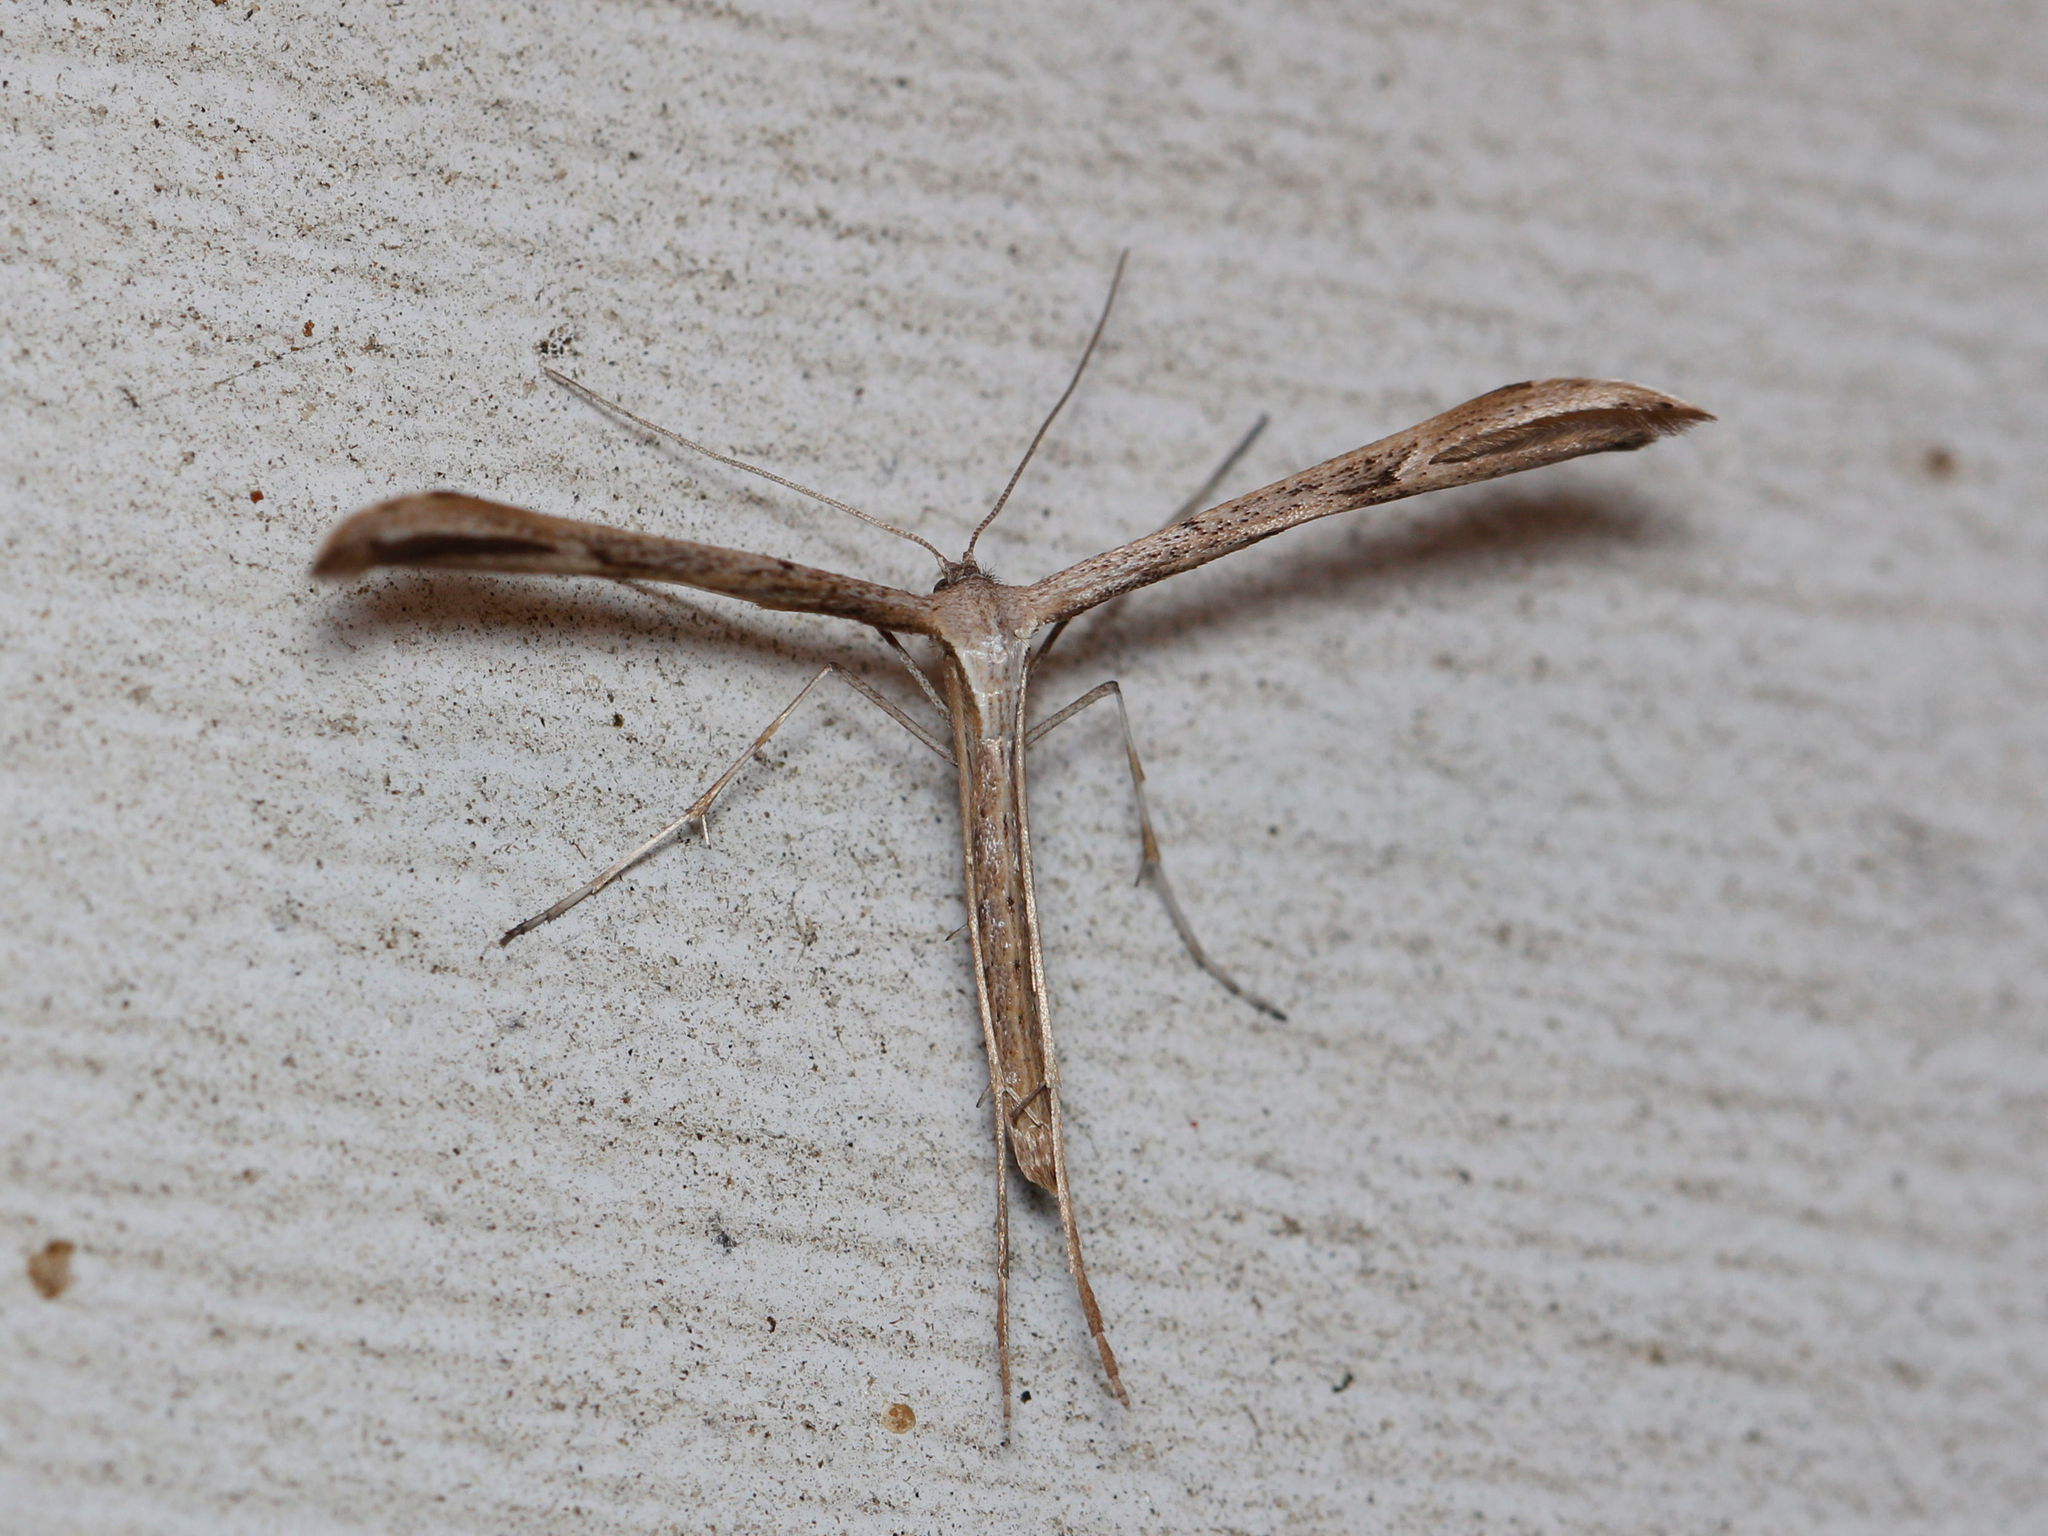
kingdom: Animalia
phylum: Arthropoda
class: Insecta
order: Lepidoptera
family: Pterophoridae
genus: Emmelina
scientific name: Emmelina monodactyla
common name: Common plume
